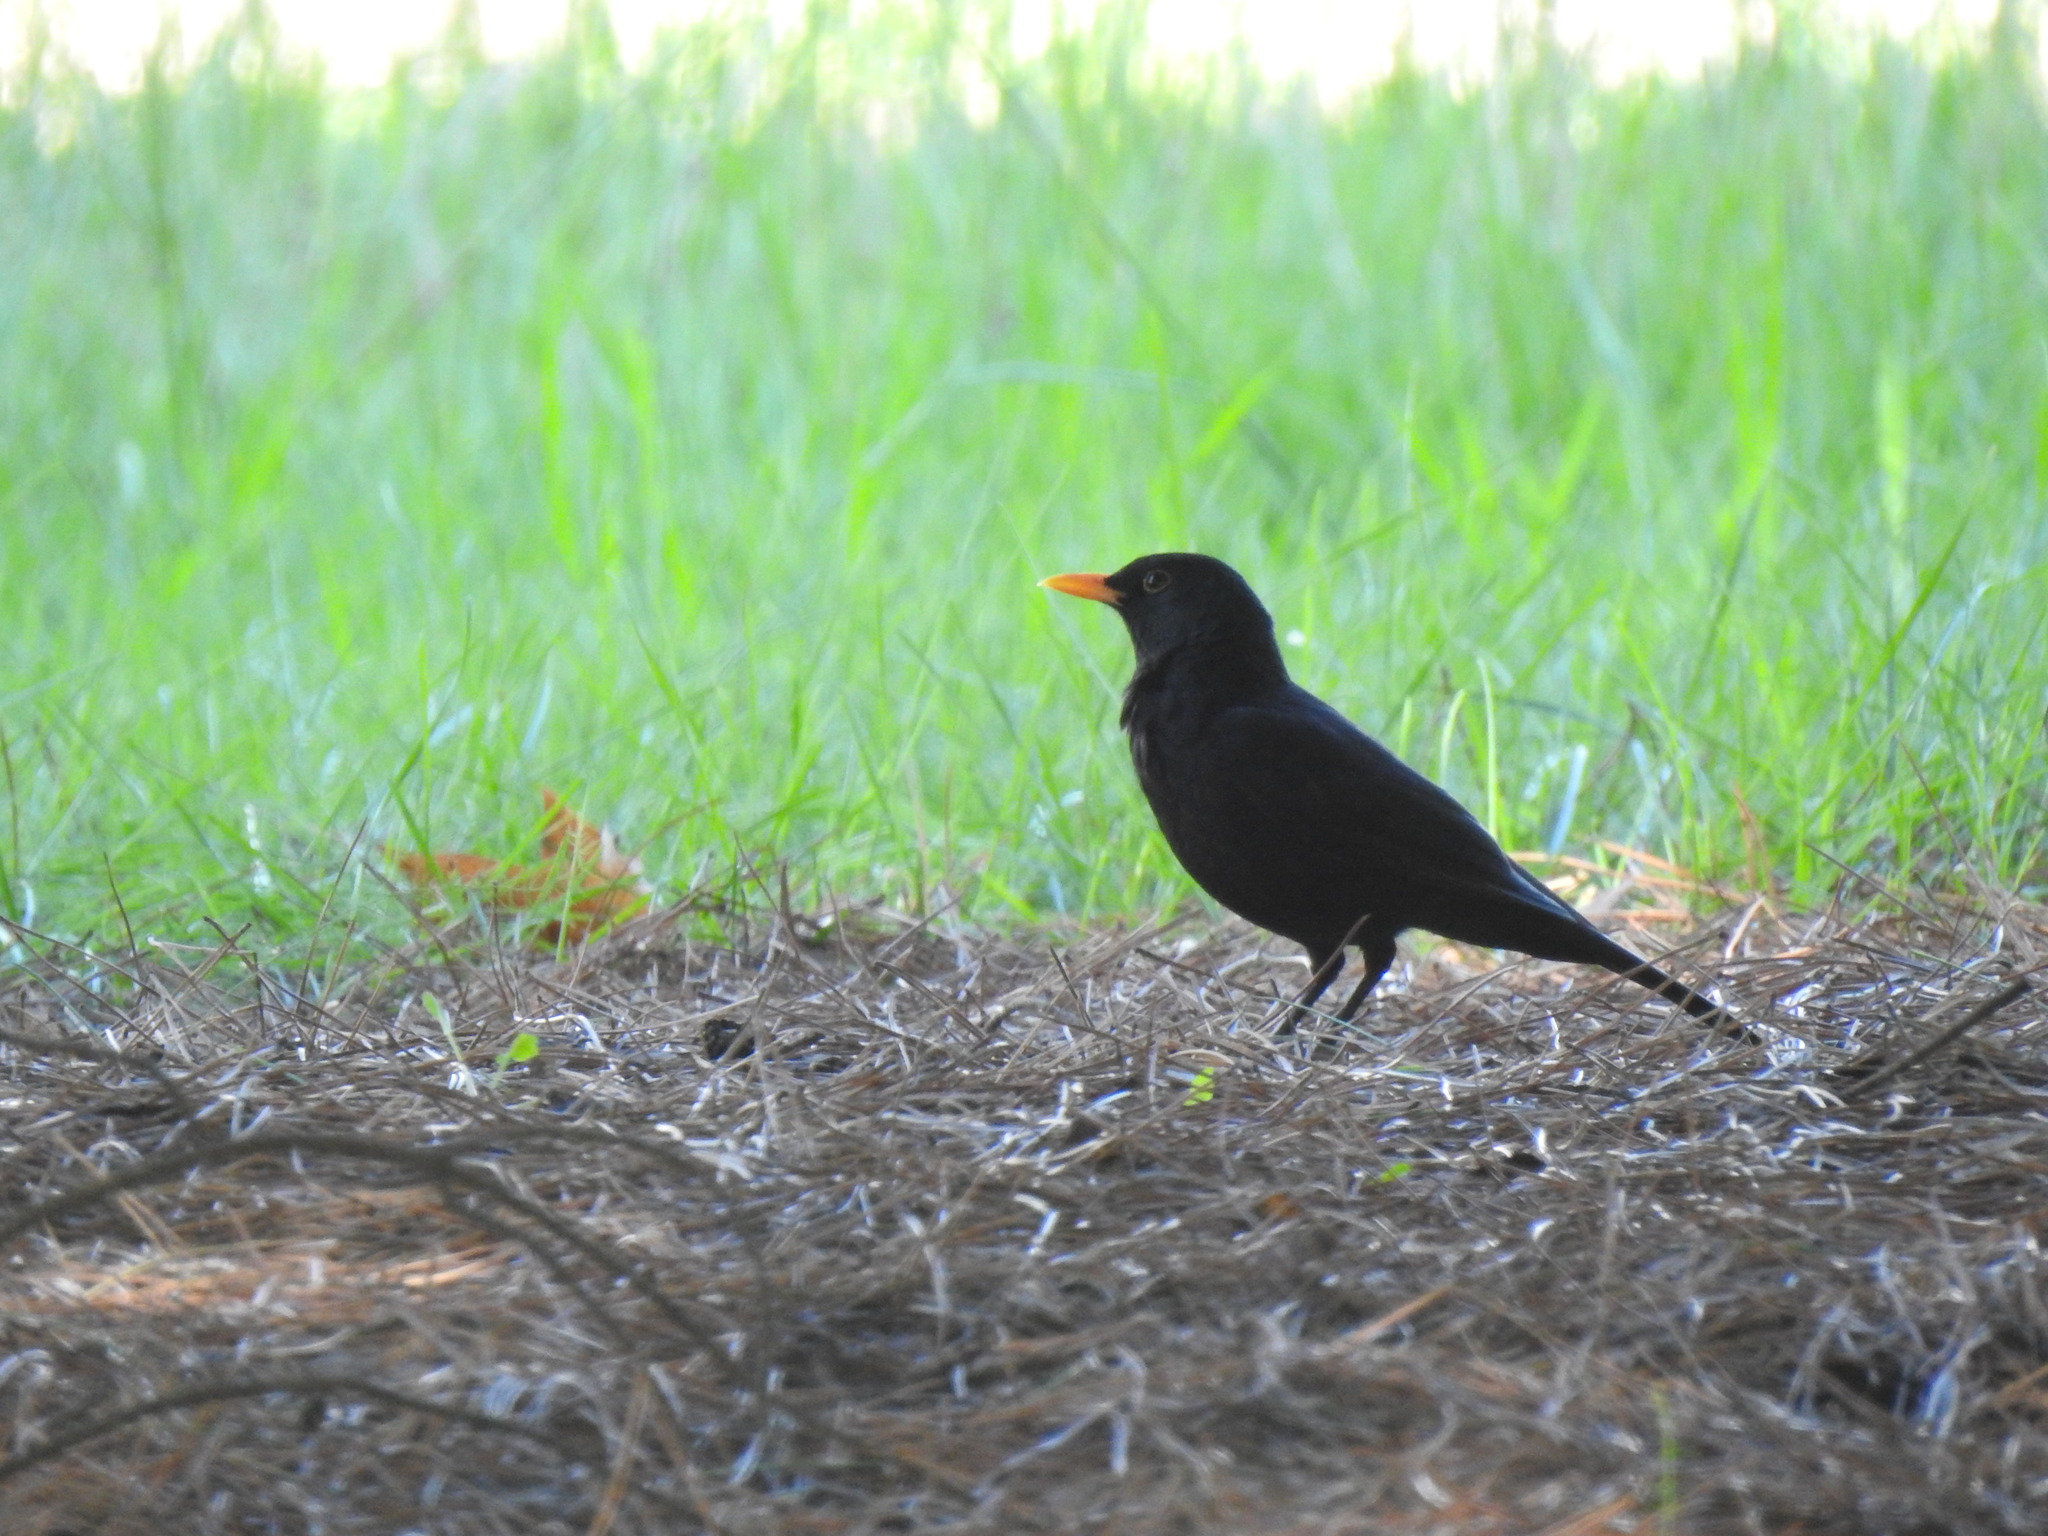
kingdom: Animalia
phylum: Chordata
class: Aves
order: Passeriformes
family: Turdidae
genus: Turdus
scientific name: Turdus merula
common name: Common blackbird
